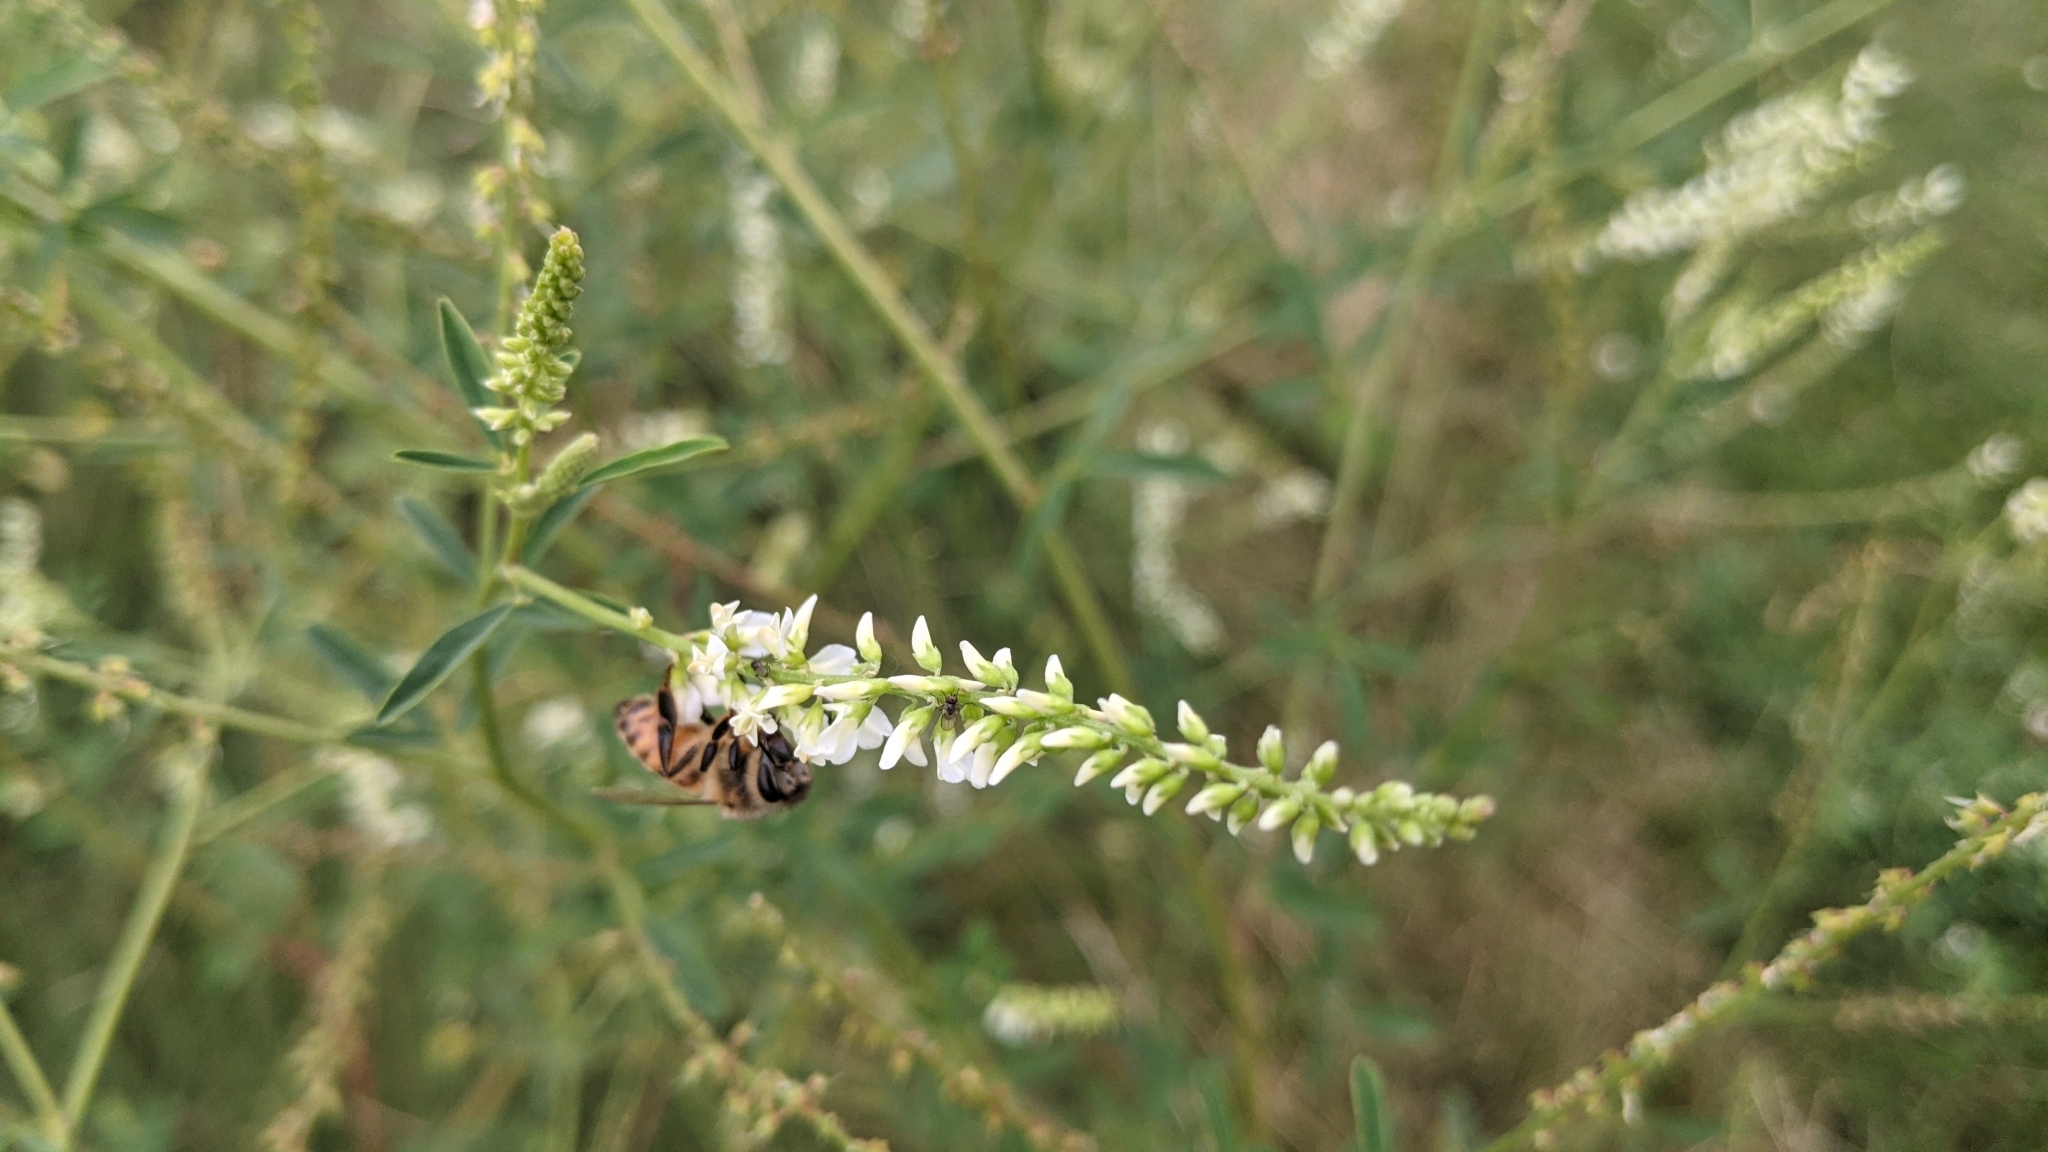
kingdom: Animalia
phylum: Arthropoda
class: Insecta
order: Hymenoptera
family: Apidae
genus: Apis
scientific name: Apis mellifera
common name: Honey bee
